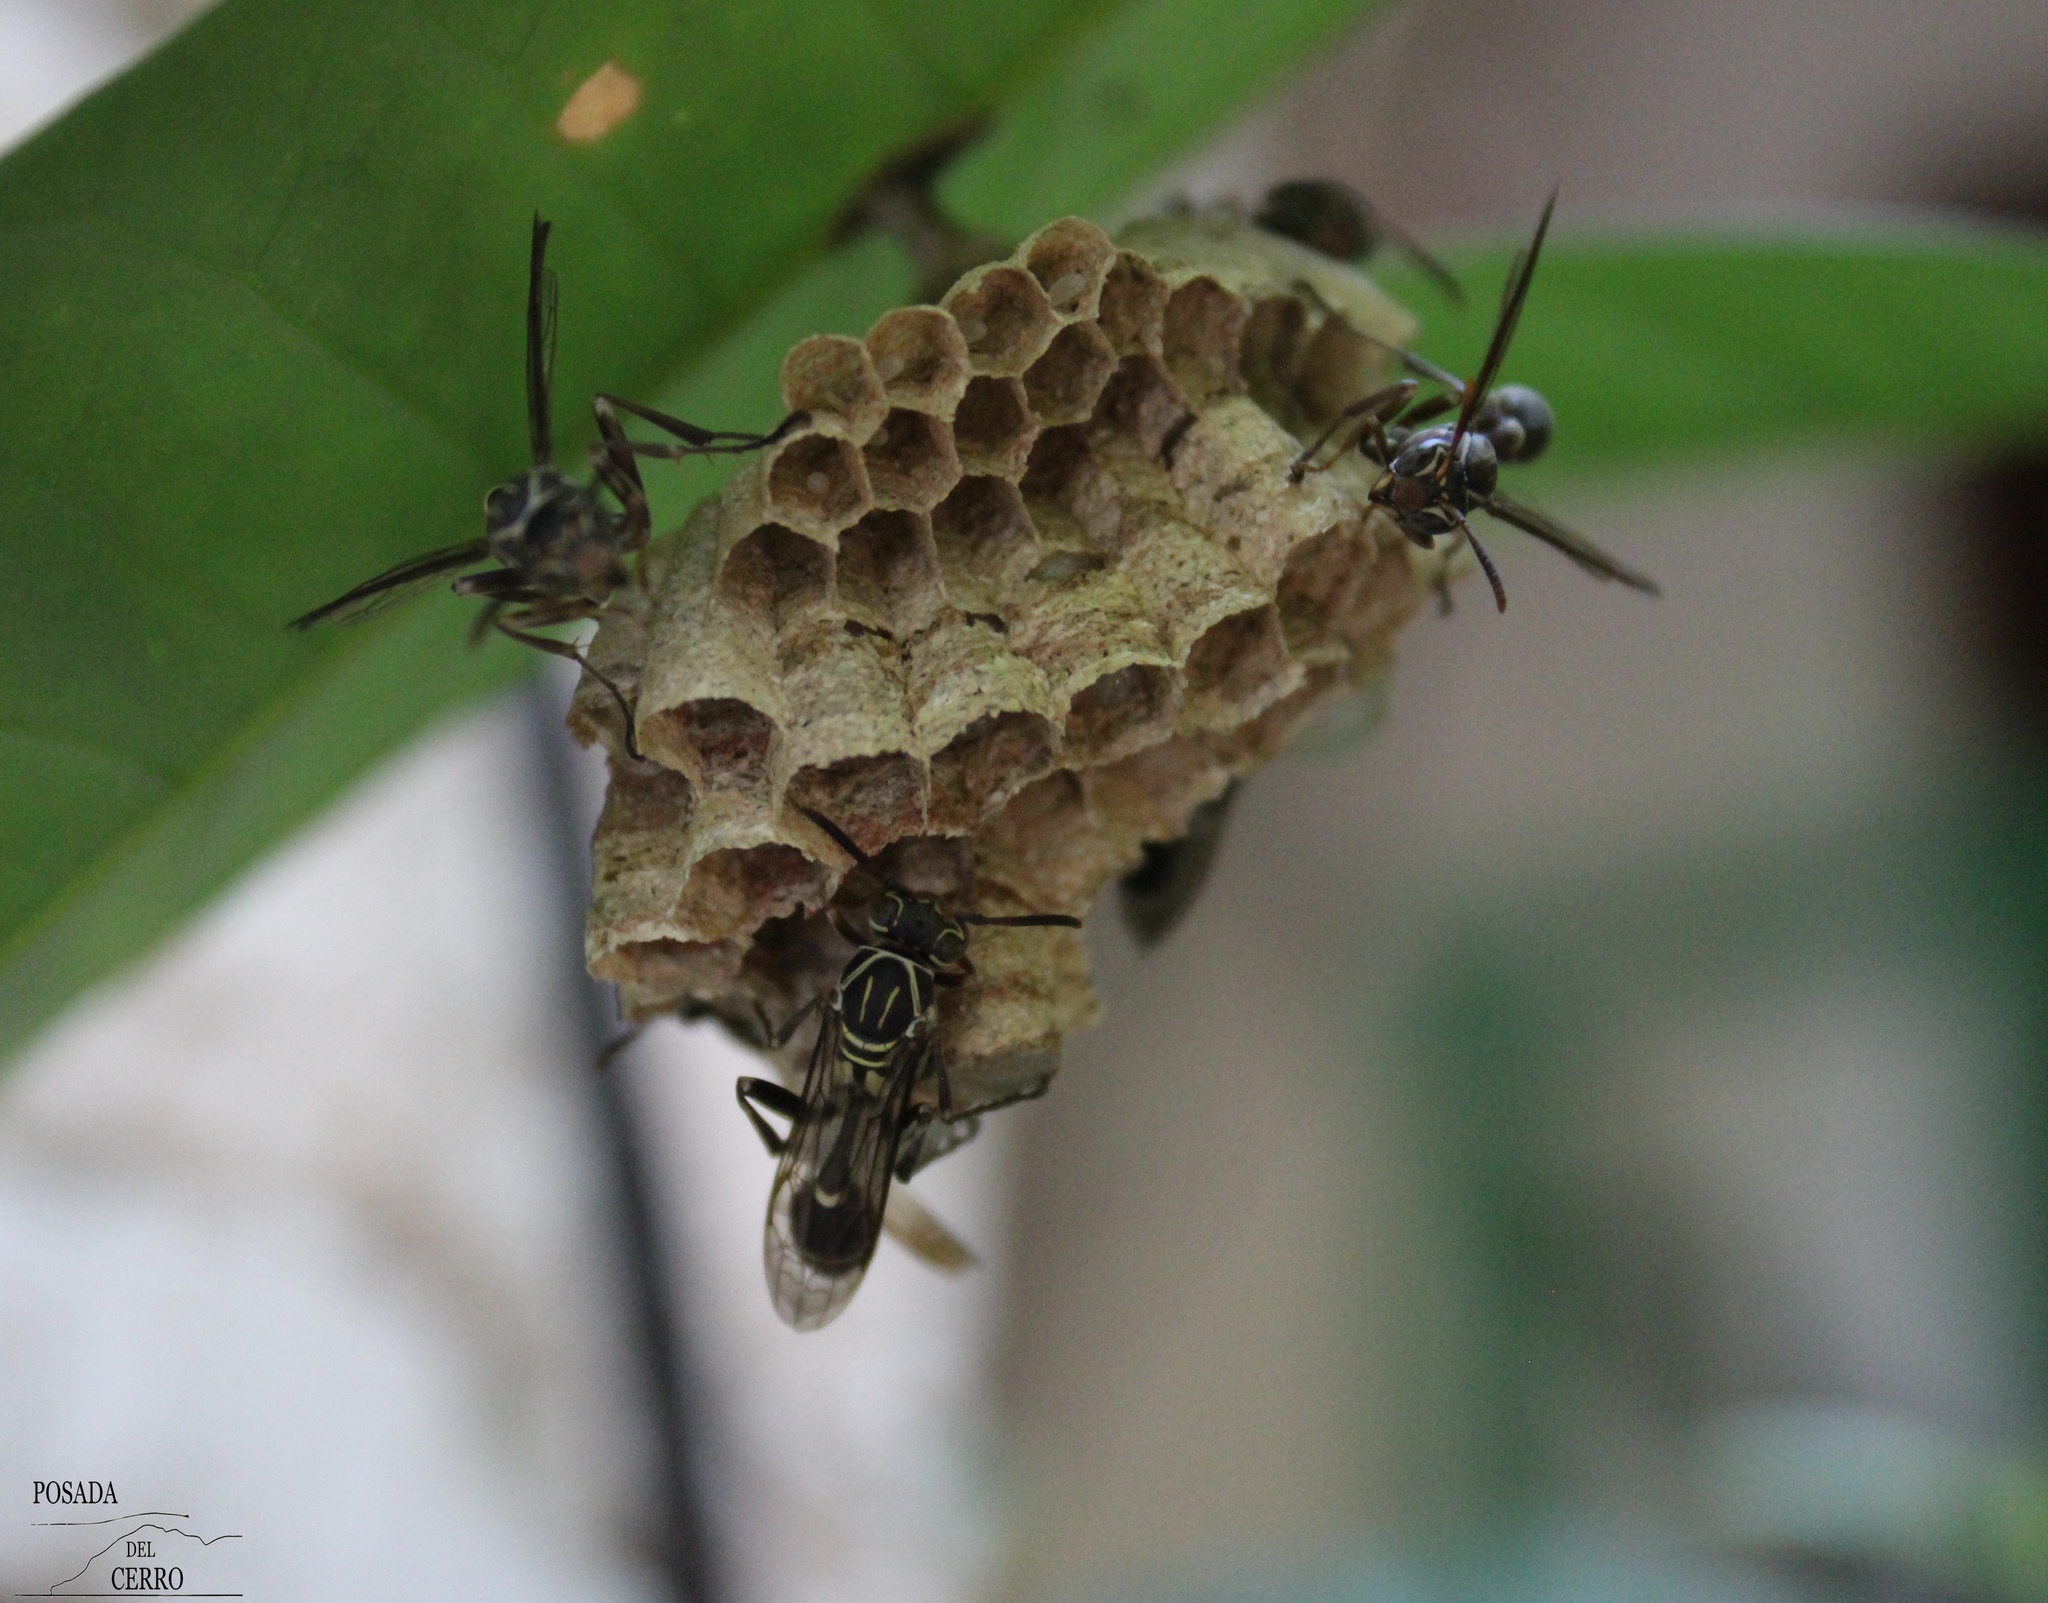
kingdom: Animalia
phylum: Arthropoda
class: Insecta
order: Hymenoptera
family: Vespidae
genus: Mischocyttarus
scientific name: Mischocyttarus mexicanus
